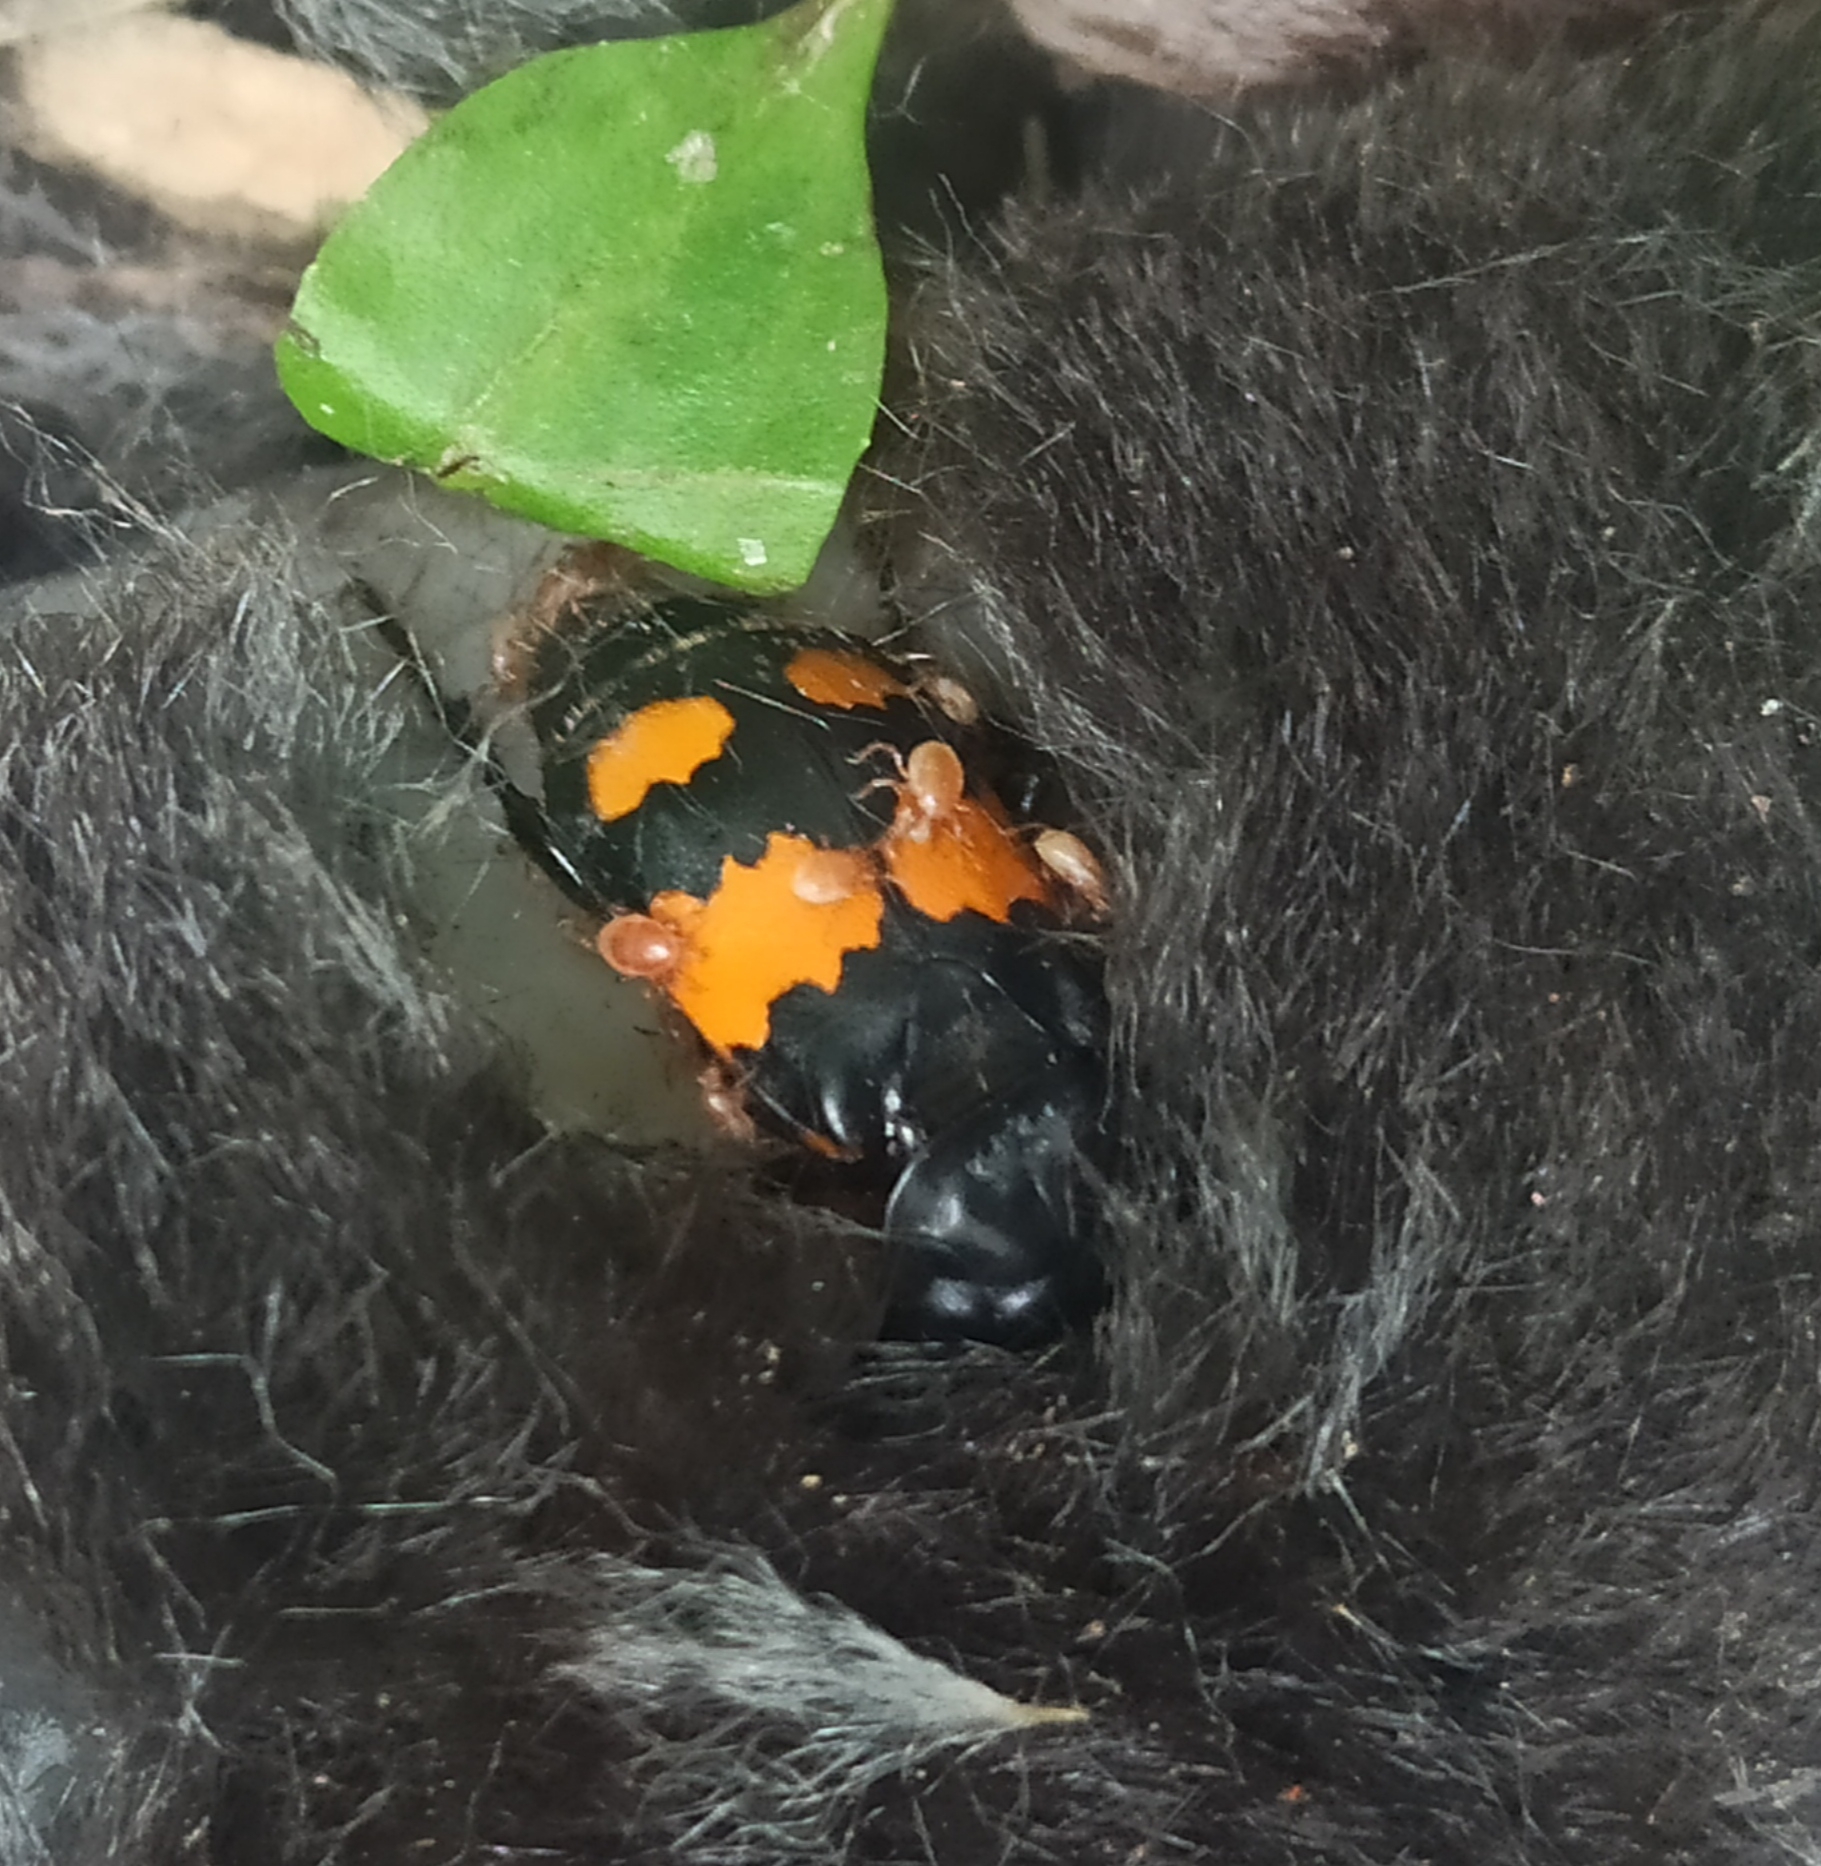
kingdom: Animalia
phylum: Arthropoda
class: Arachnida
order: Mesostigmata
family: Parasitidae
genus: Poecilochirus
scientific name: Poecilochirus
